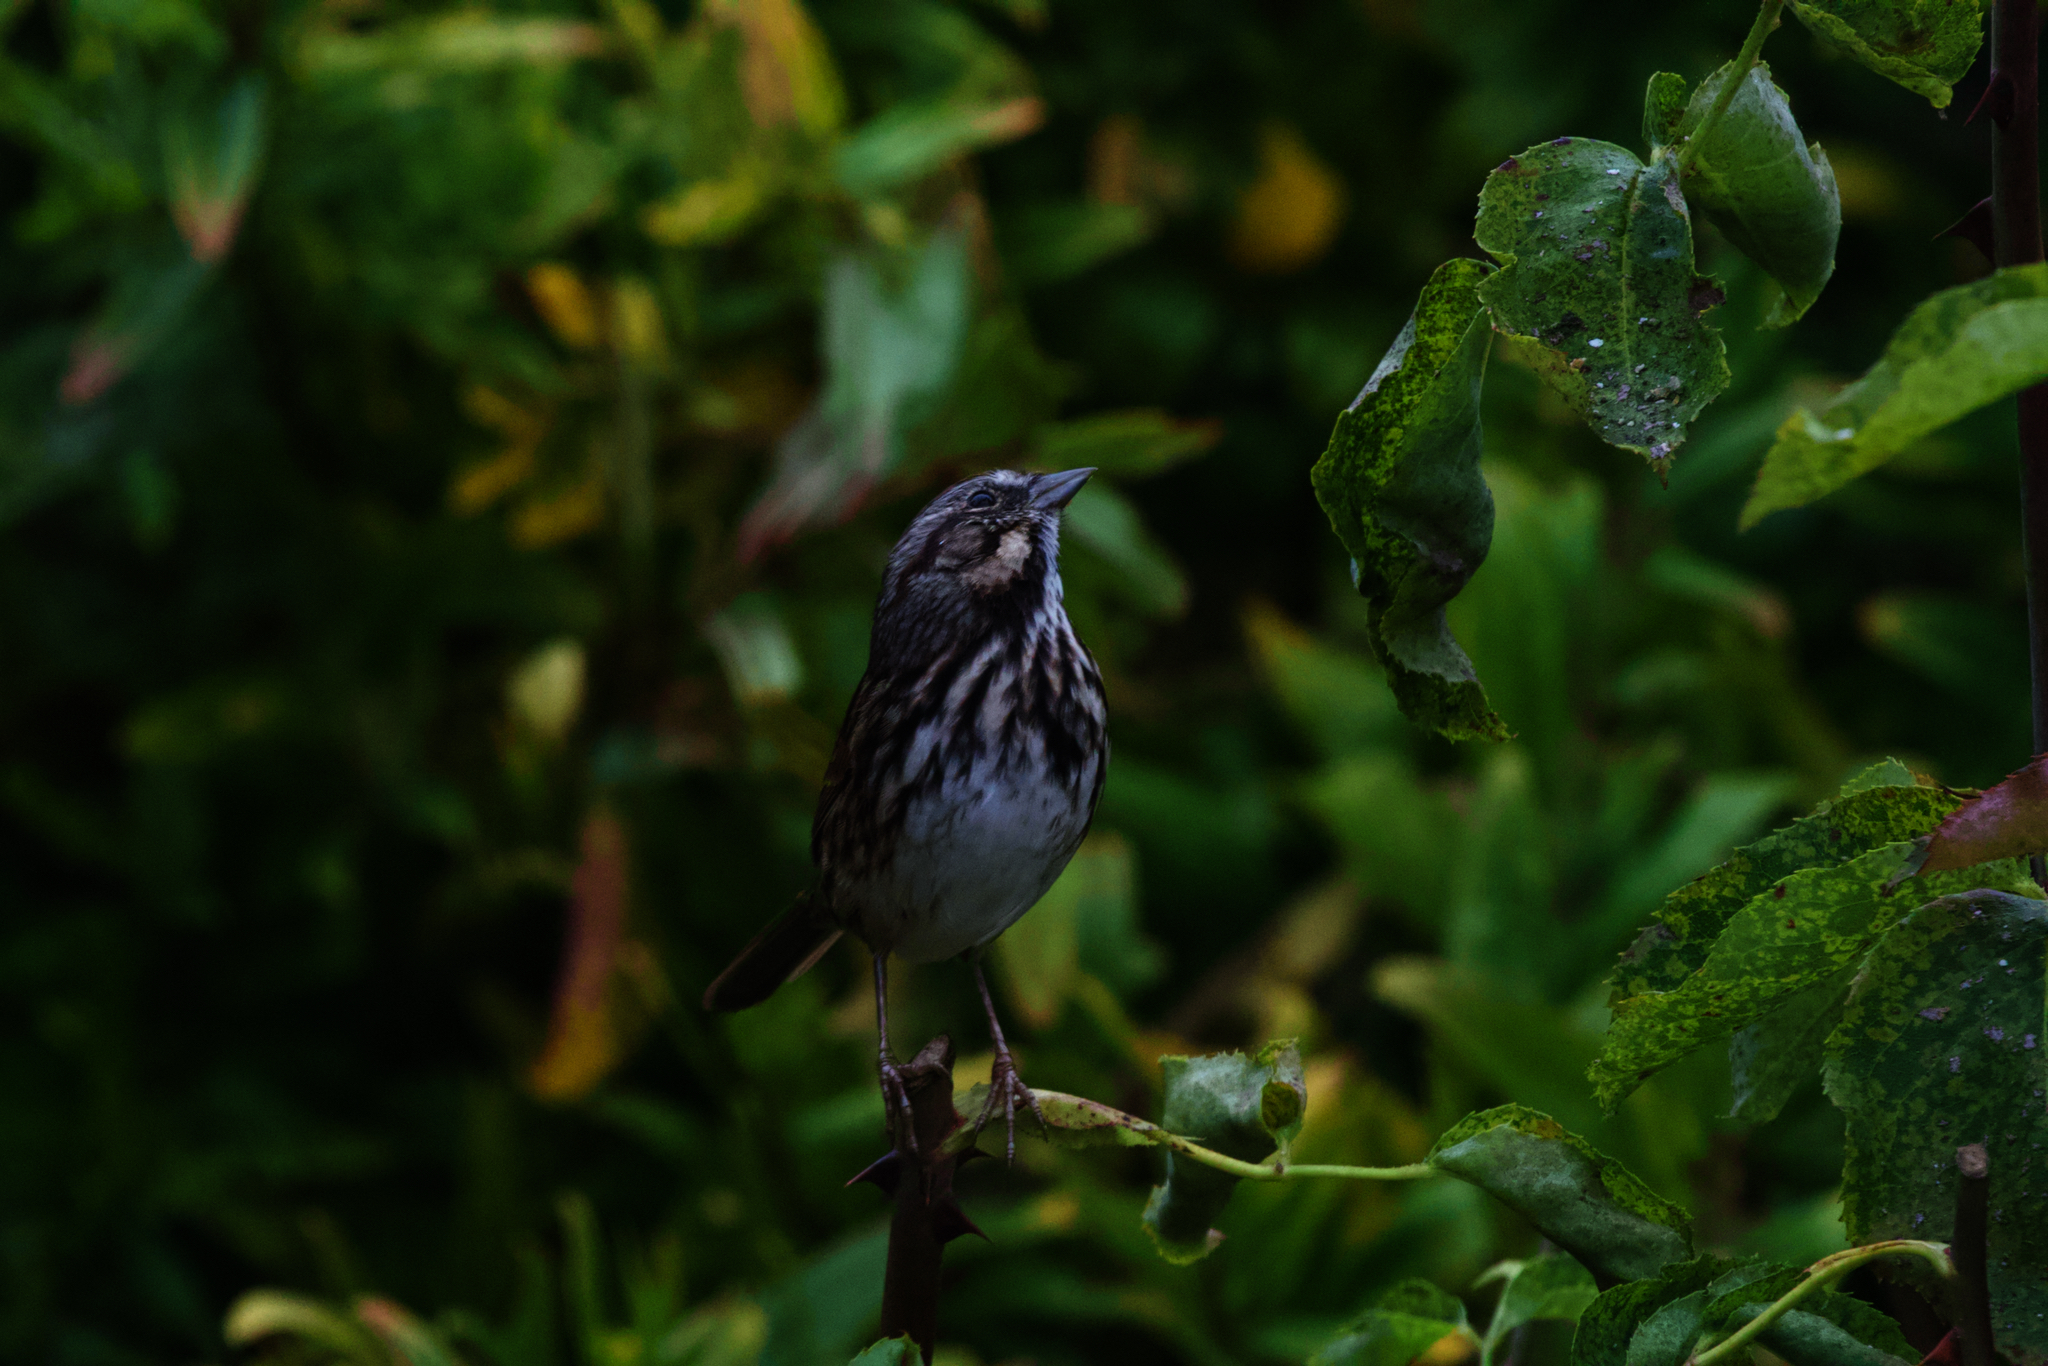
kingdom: Animalia
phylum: Chordata
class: Aves
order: Passeriformes
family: Passerellidae
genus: Melospiza
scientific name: Melospiza melodia
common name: Song sparrow
